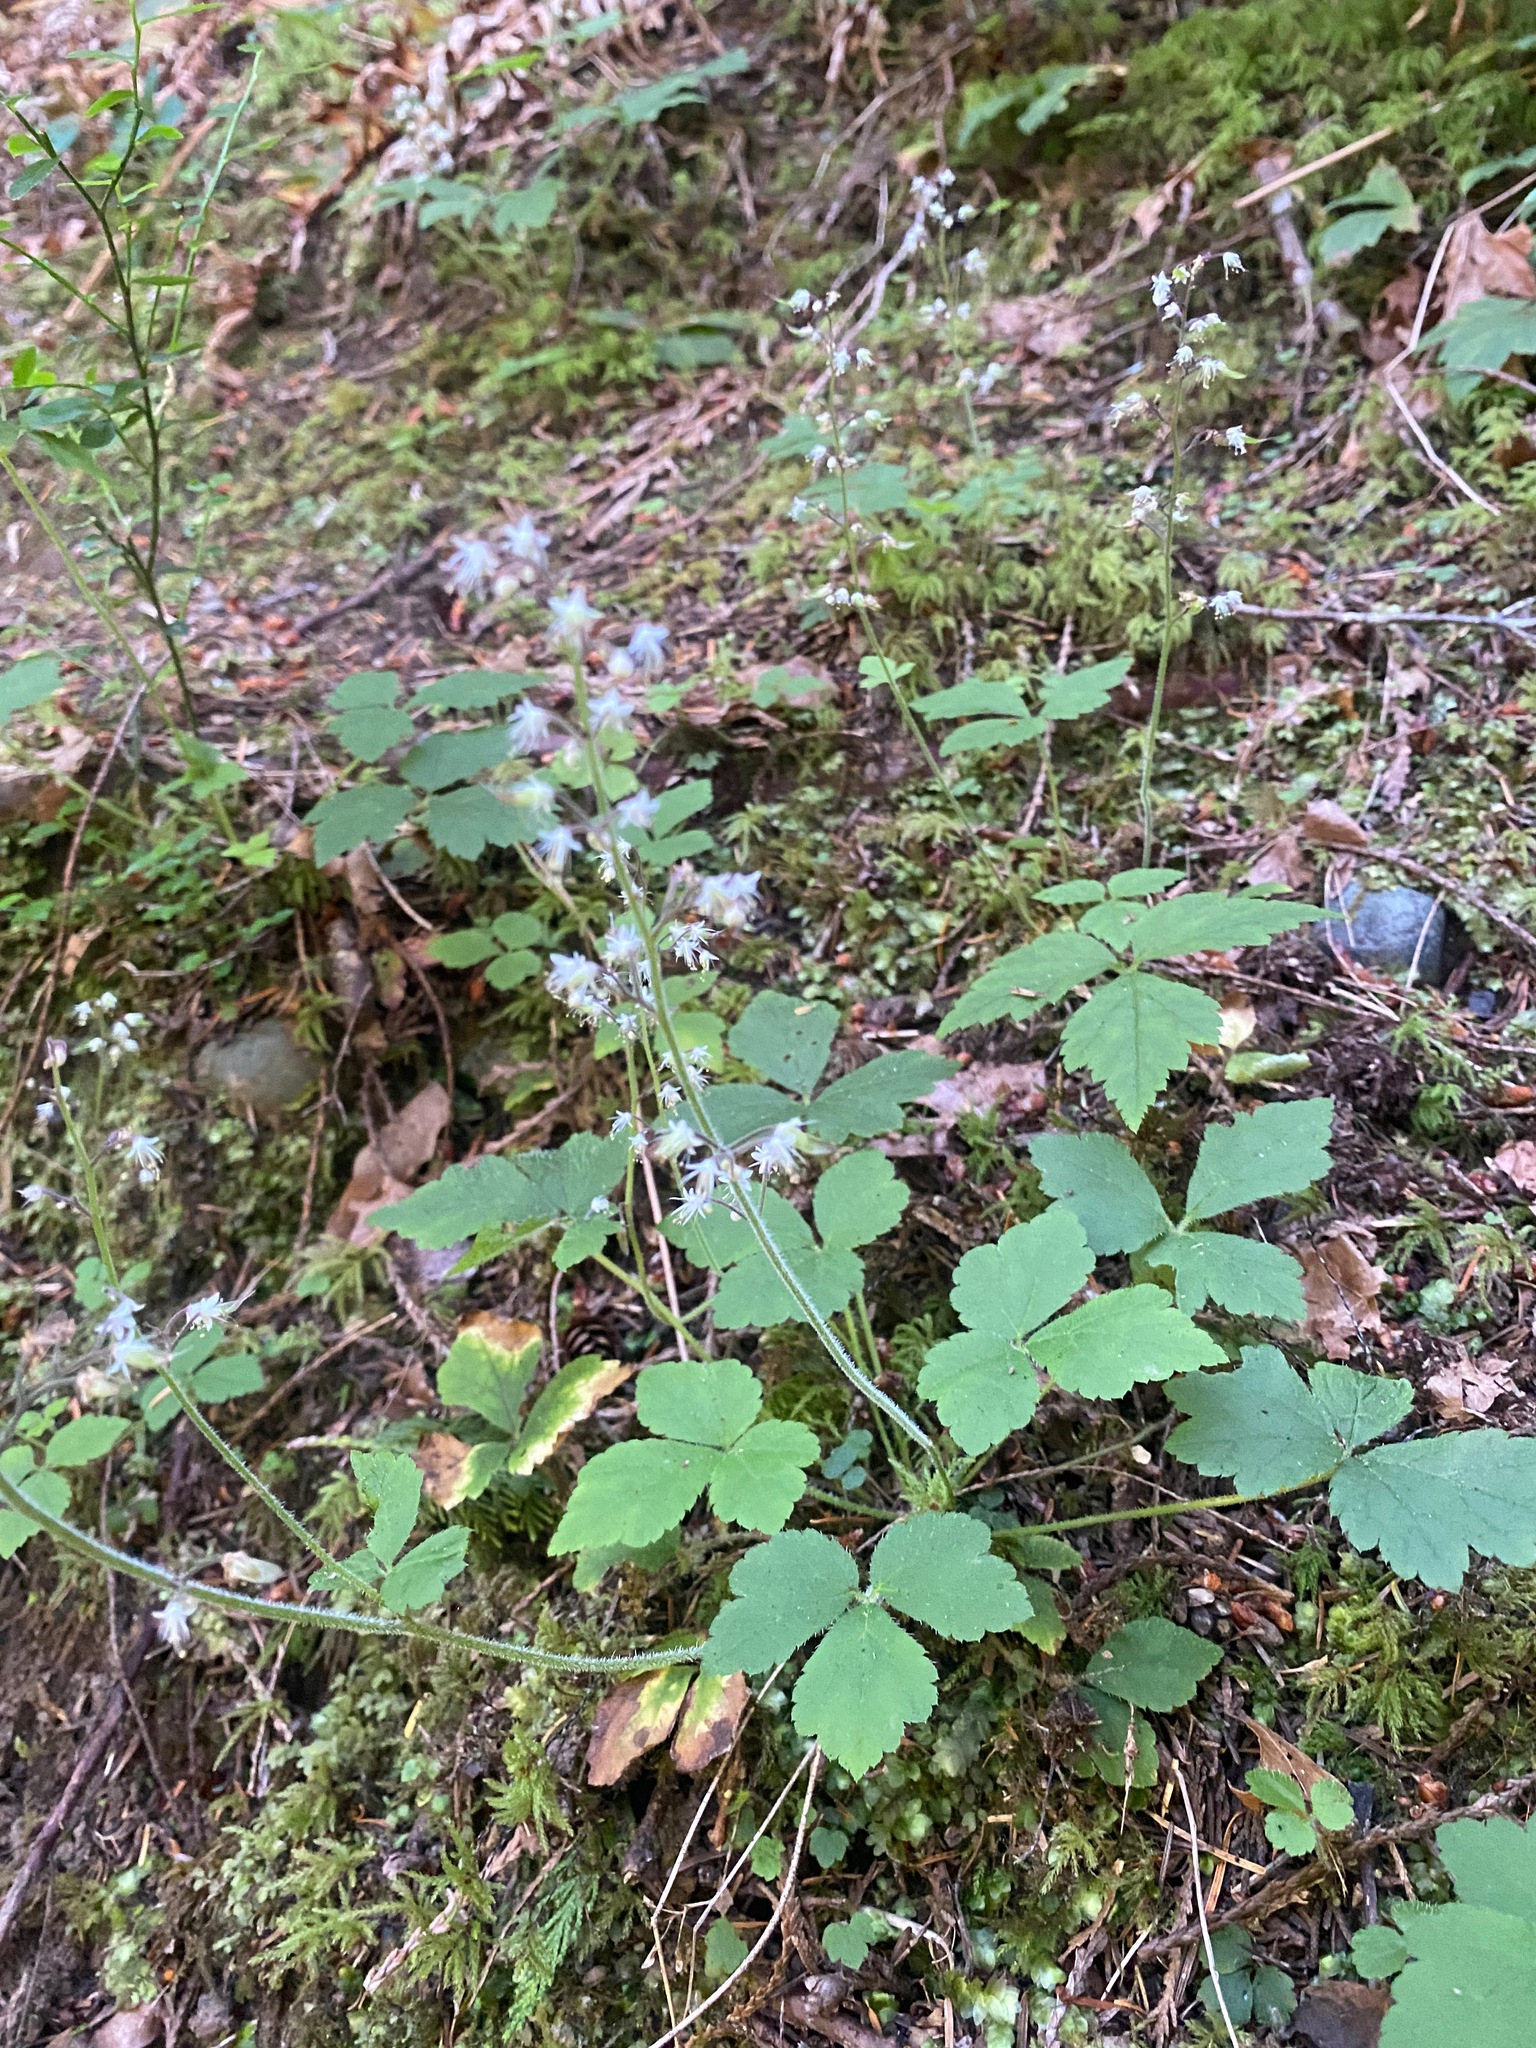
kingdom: Plantae
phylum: Tracheophyta
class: Magnoliopsida
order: Saxifragales
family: Saxifragaceae
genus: Tiarella
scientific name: Tiarella trifoliata
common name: Sugar-scoop
